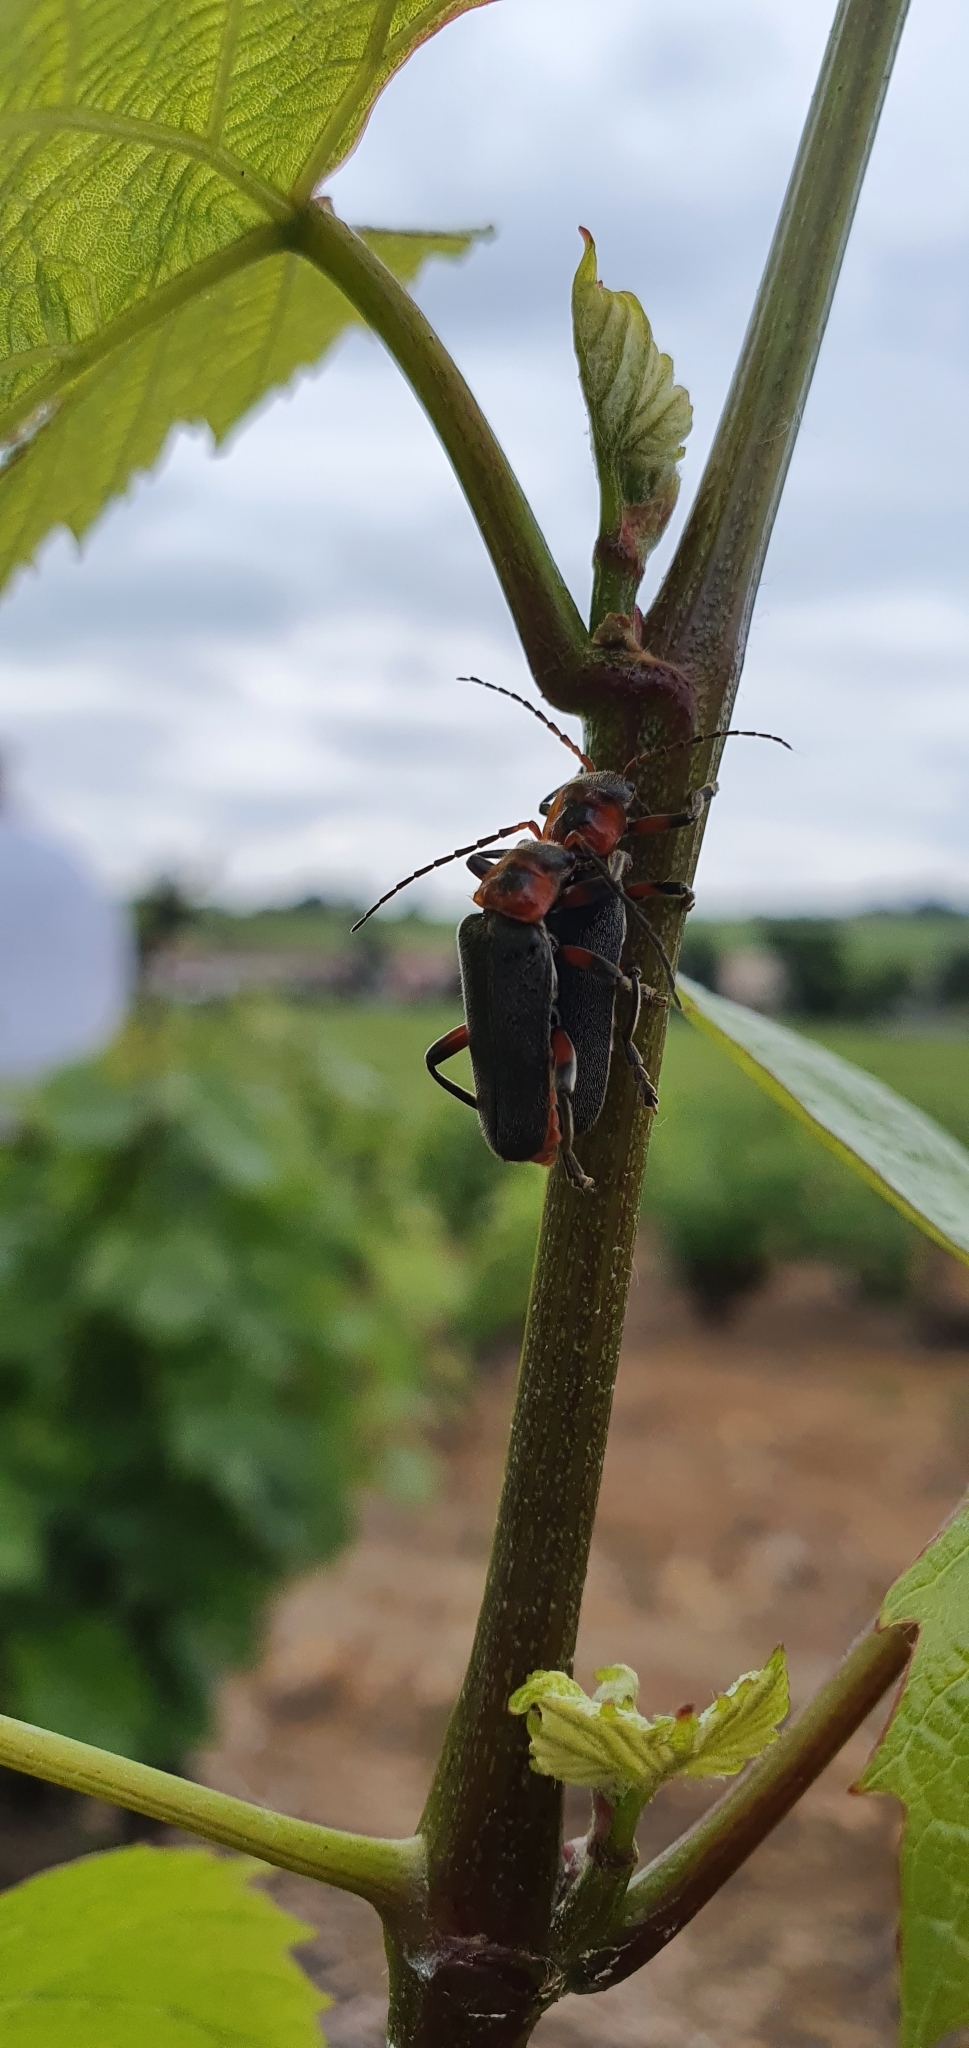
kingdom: Animalia
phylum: Arthropoda
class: Insecta
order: Coleoptera
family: Cantharidae
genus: Cantharis
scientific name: Cantharis rustica
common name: Soldier beetle
